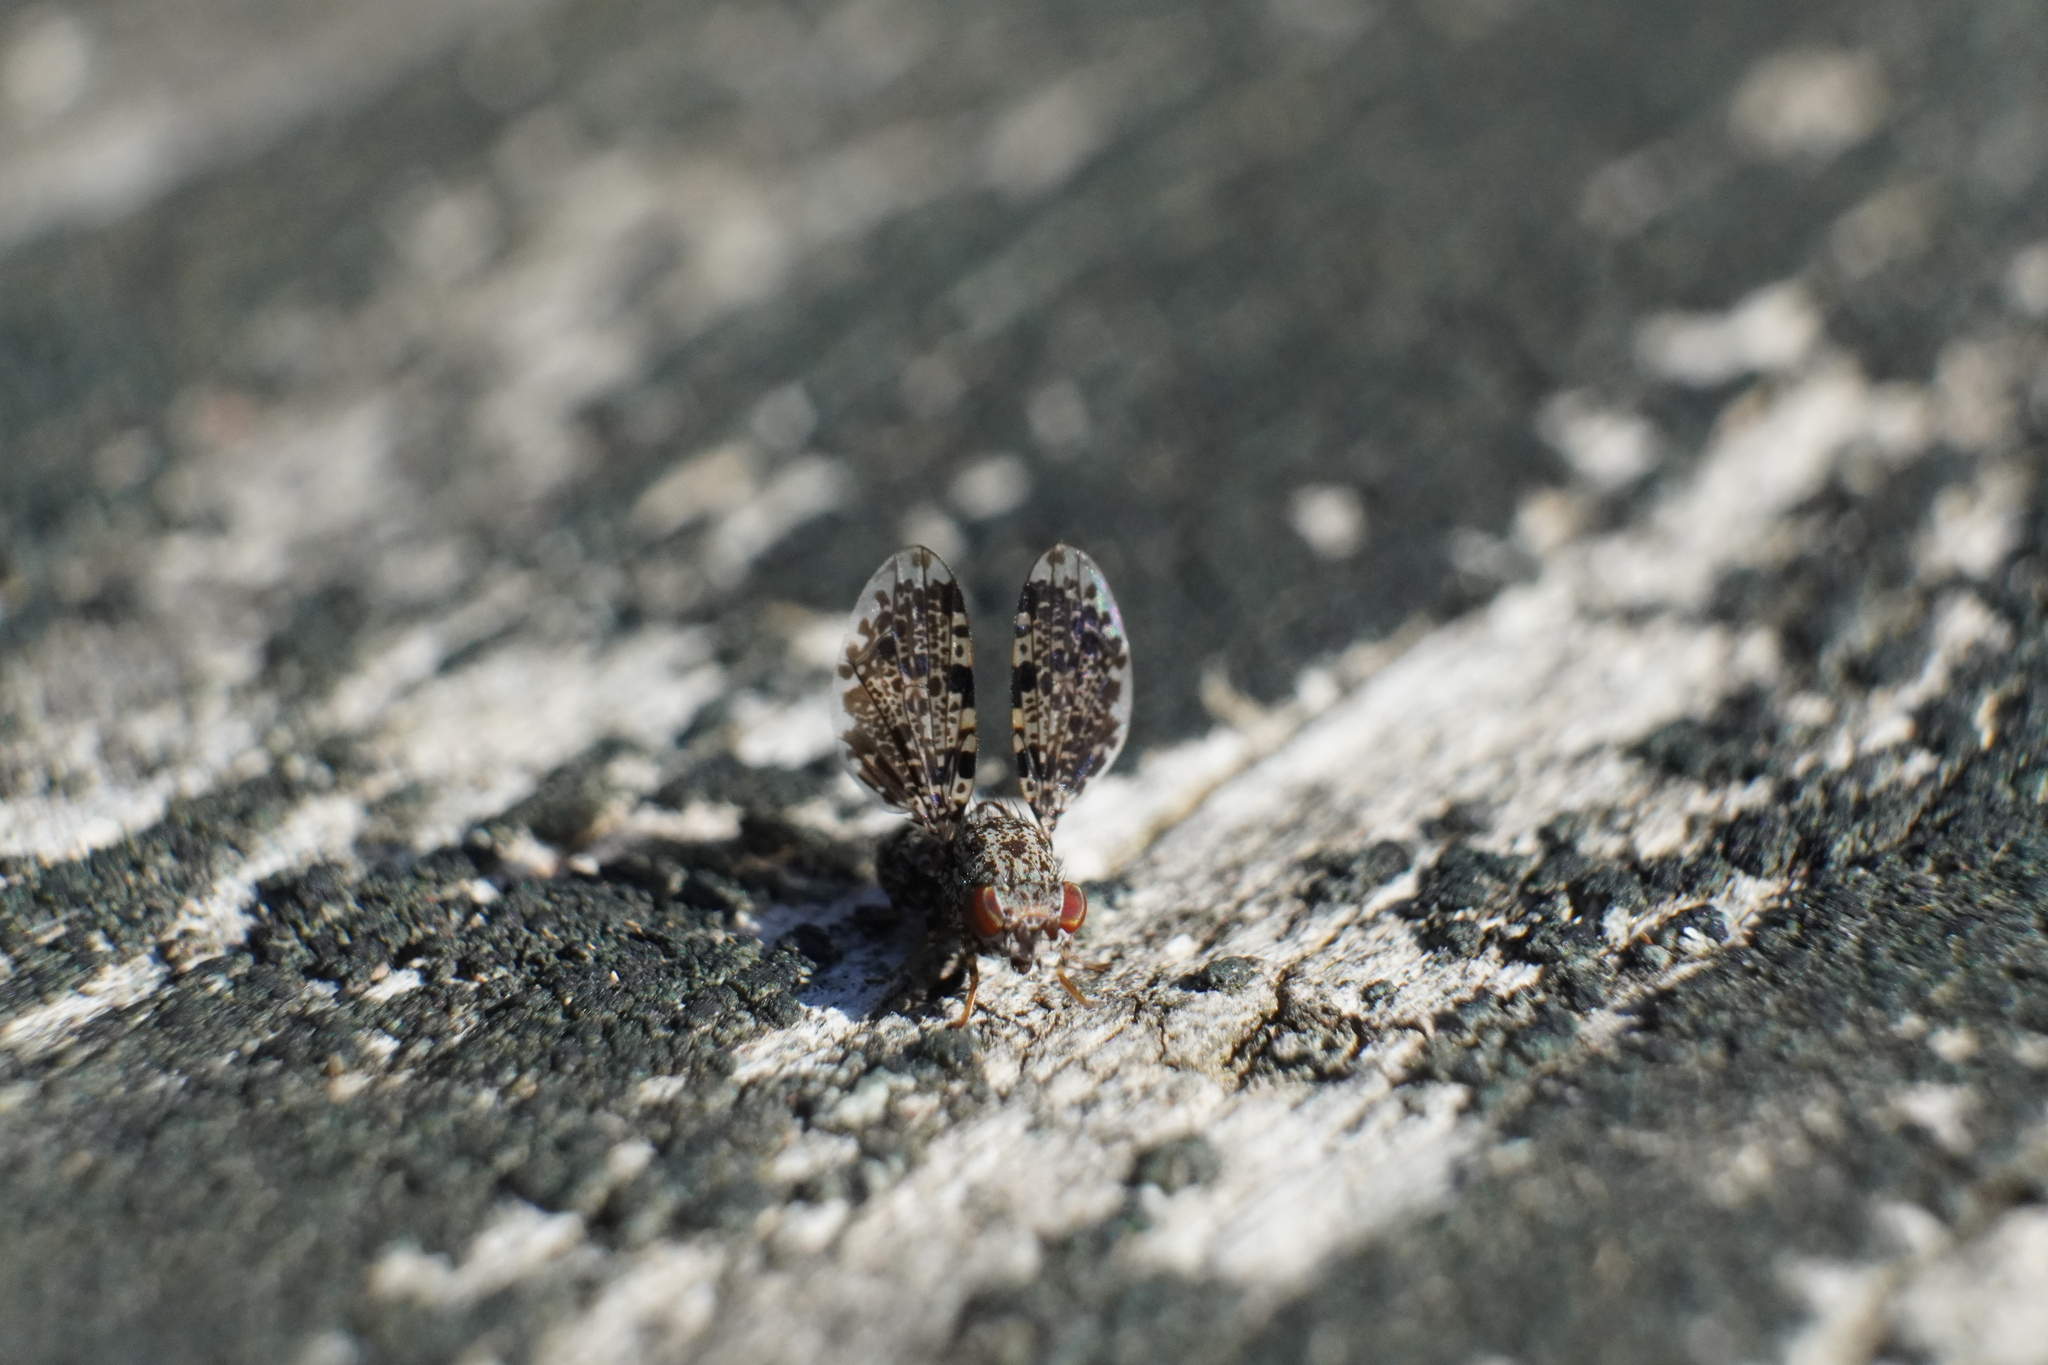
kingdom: Animalia
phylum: Arthropoda
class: Insecta
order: Diptera
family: Ulidiidae
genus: Callopistromyia
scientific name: Callopistromyia annulipes
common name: Peacock fly
